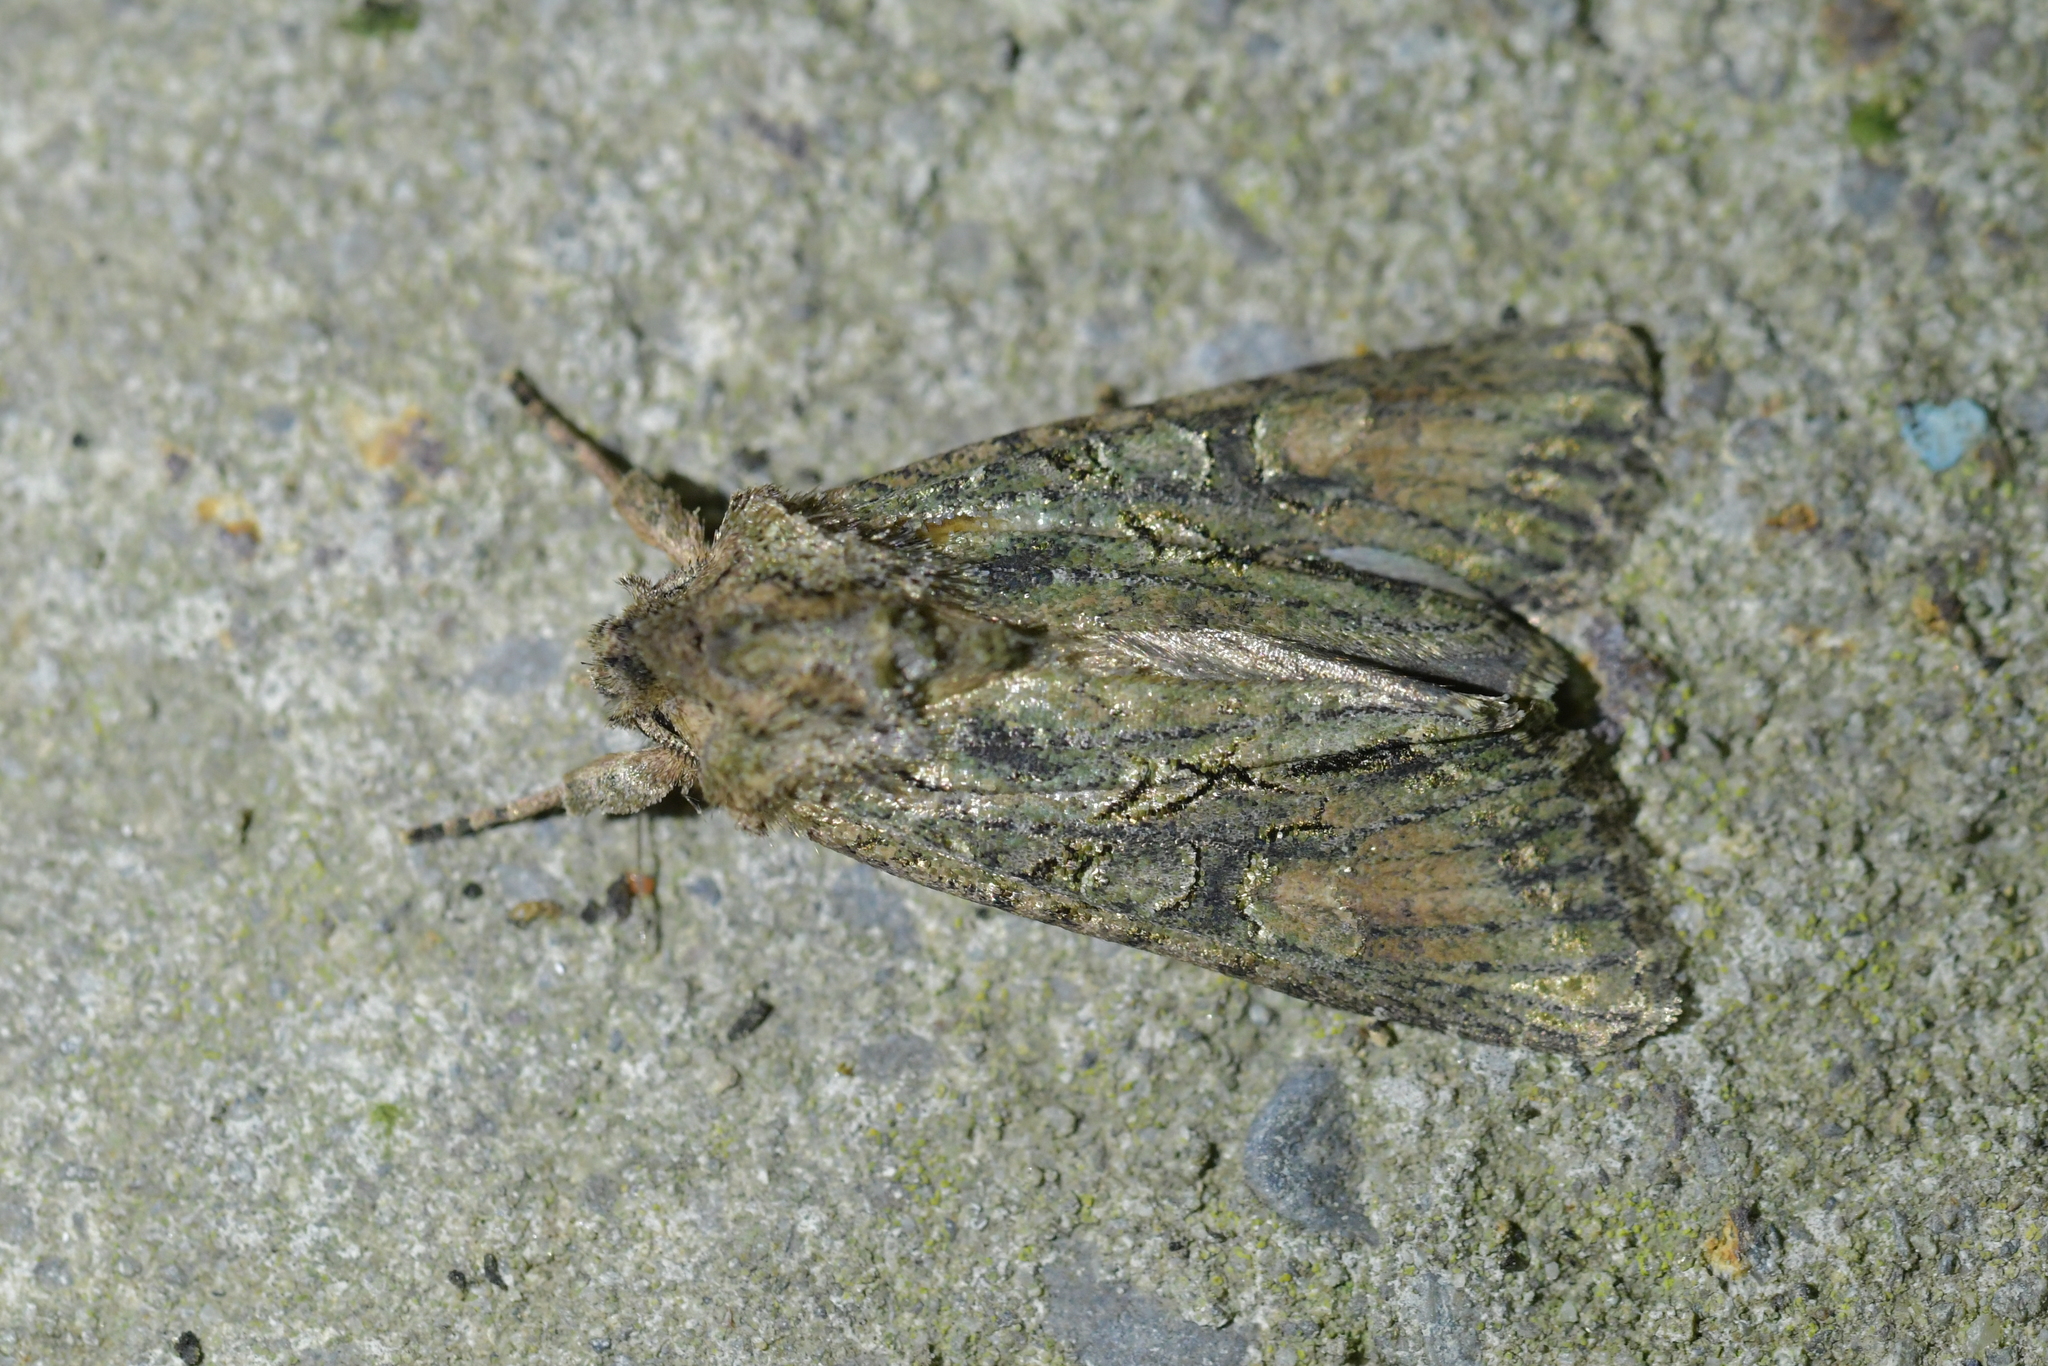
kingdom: Animalia
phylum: Arthropoda
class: Insecta
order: Lepidoptera
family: Noctuidae
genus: Ichneutica
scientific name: Ichneutica mutans
